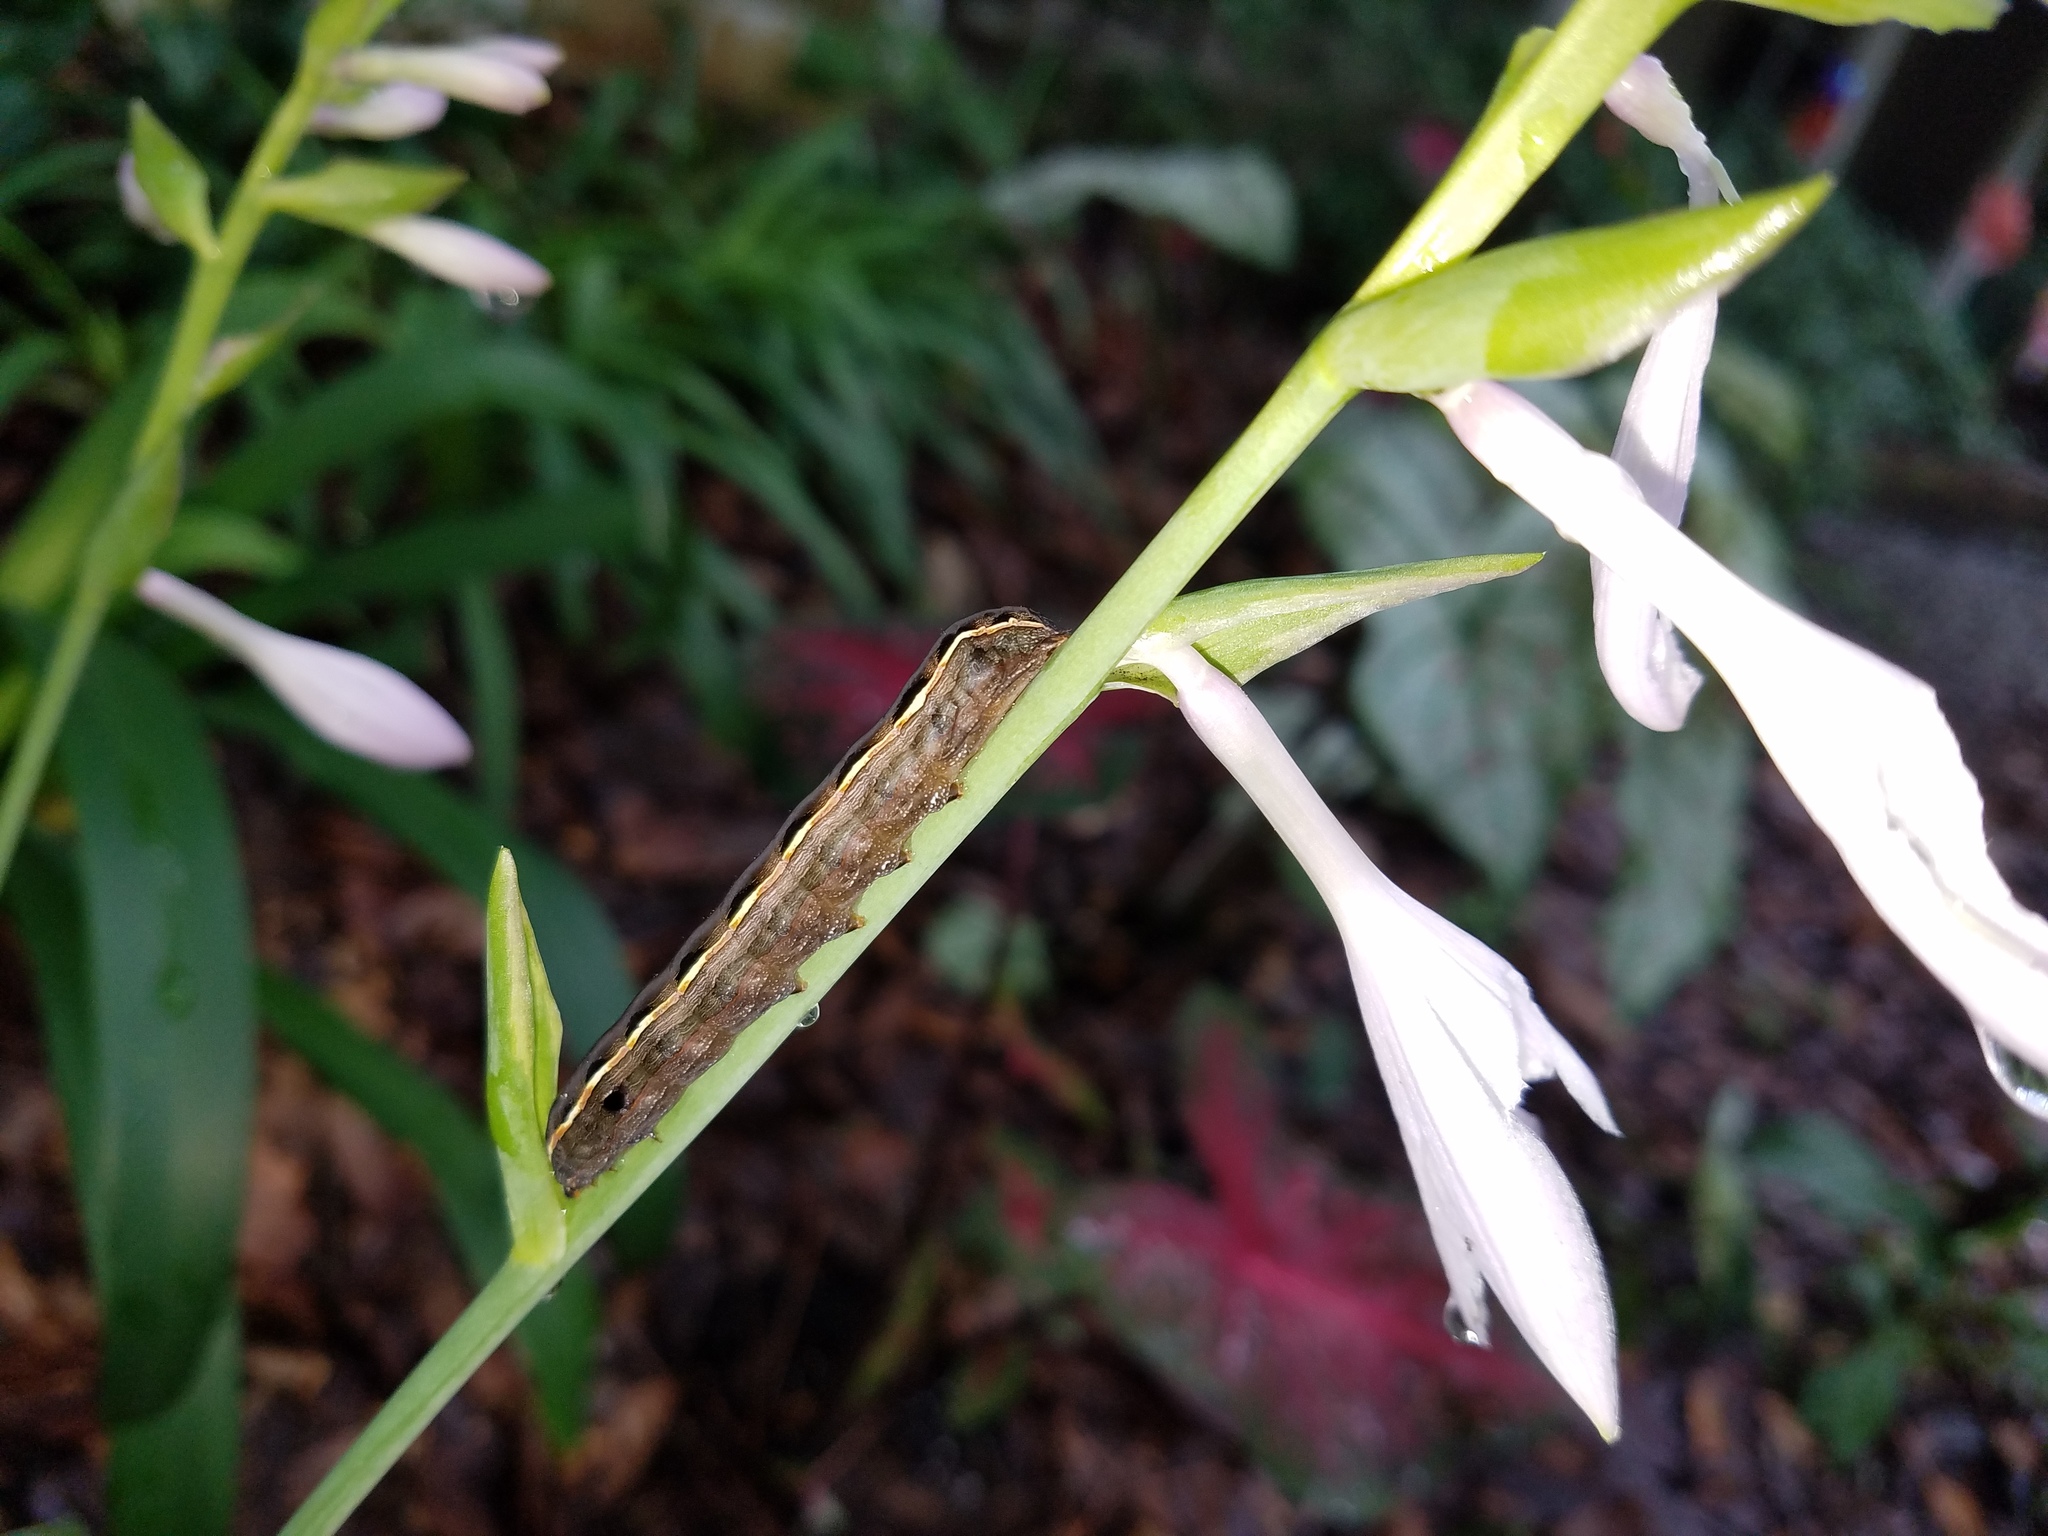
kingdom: Animalia
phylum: Arthropoda
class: Insecta
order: Lepidoptera
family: Noctuidae
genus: Spodoptera
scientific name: Spodoptera ornithogalli
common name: Yellow-striped armyworm
